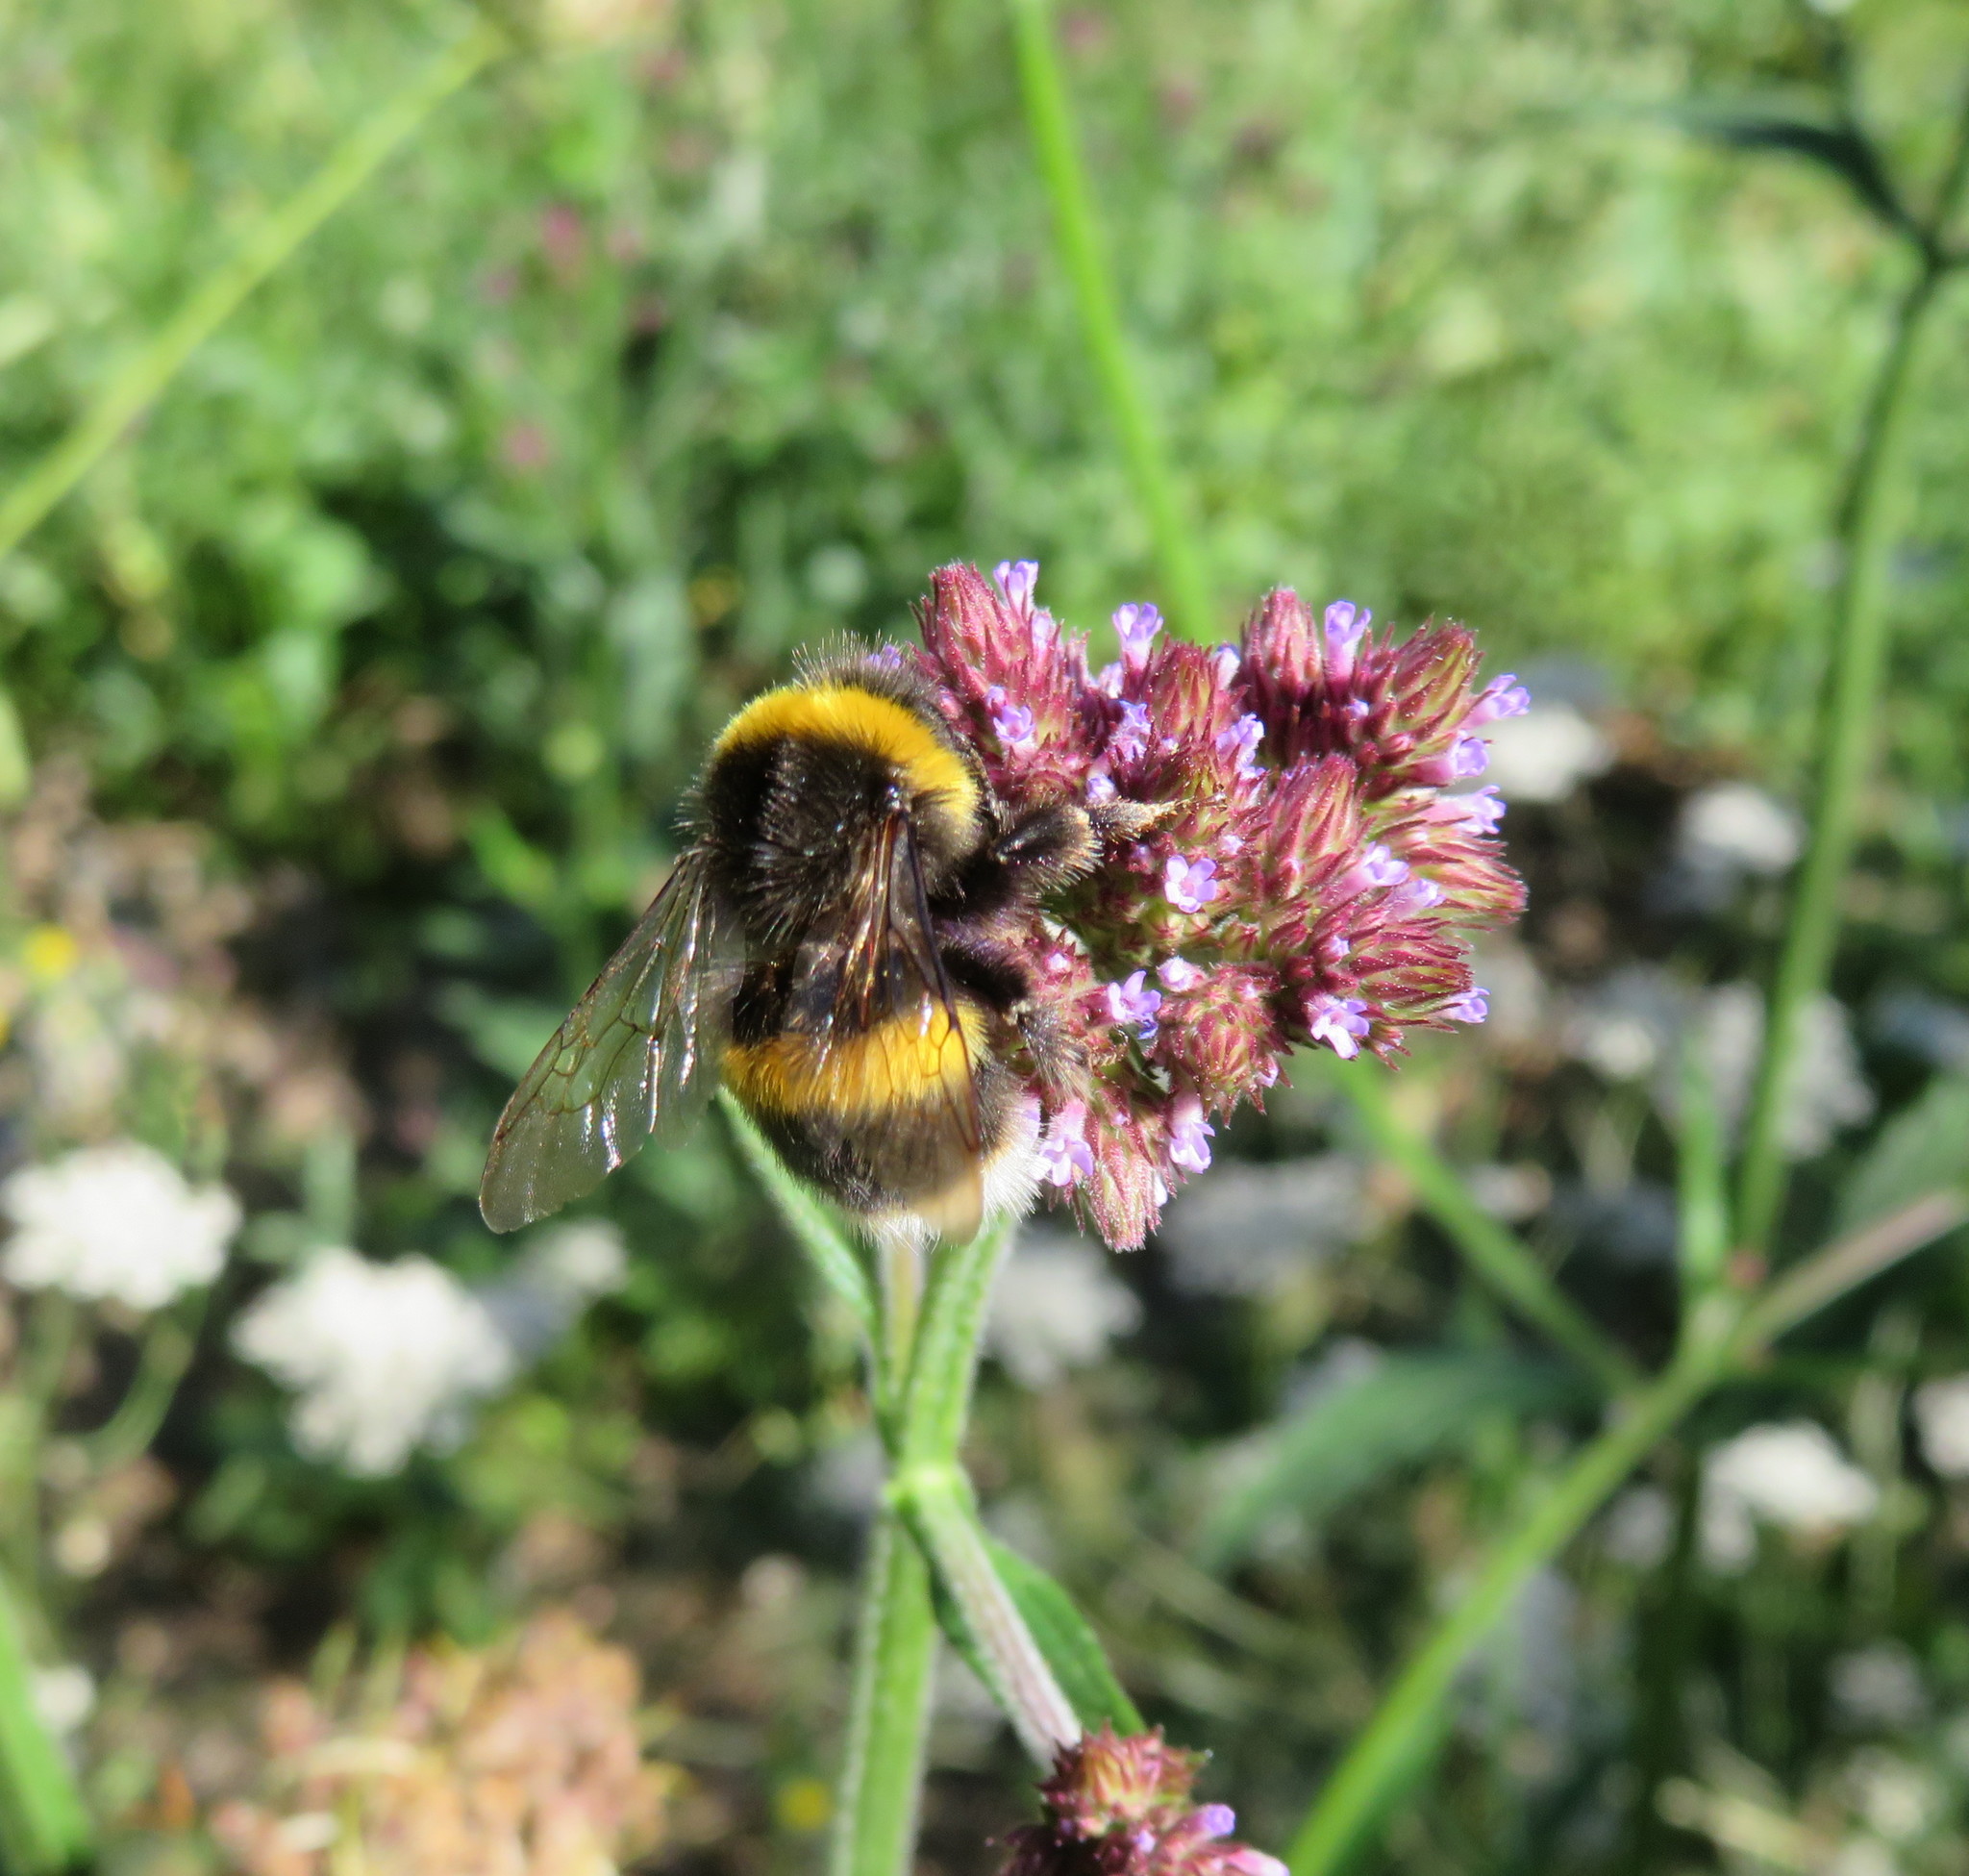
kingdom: Animalia
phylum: Arthropoda
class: Insecta
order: Hymenoptera
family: Apidae
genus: Bombus
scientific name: Bombus terrestris
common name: Buff-tailed bumblebee
